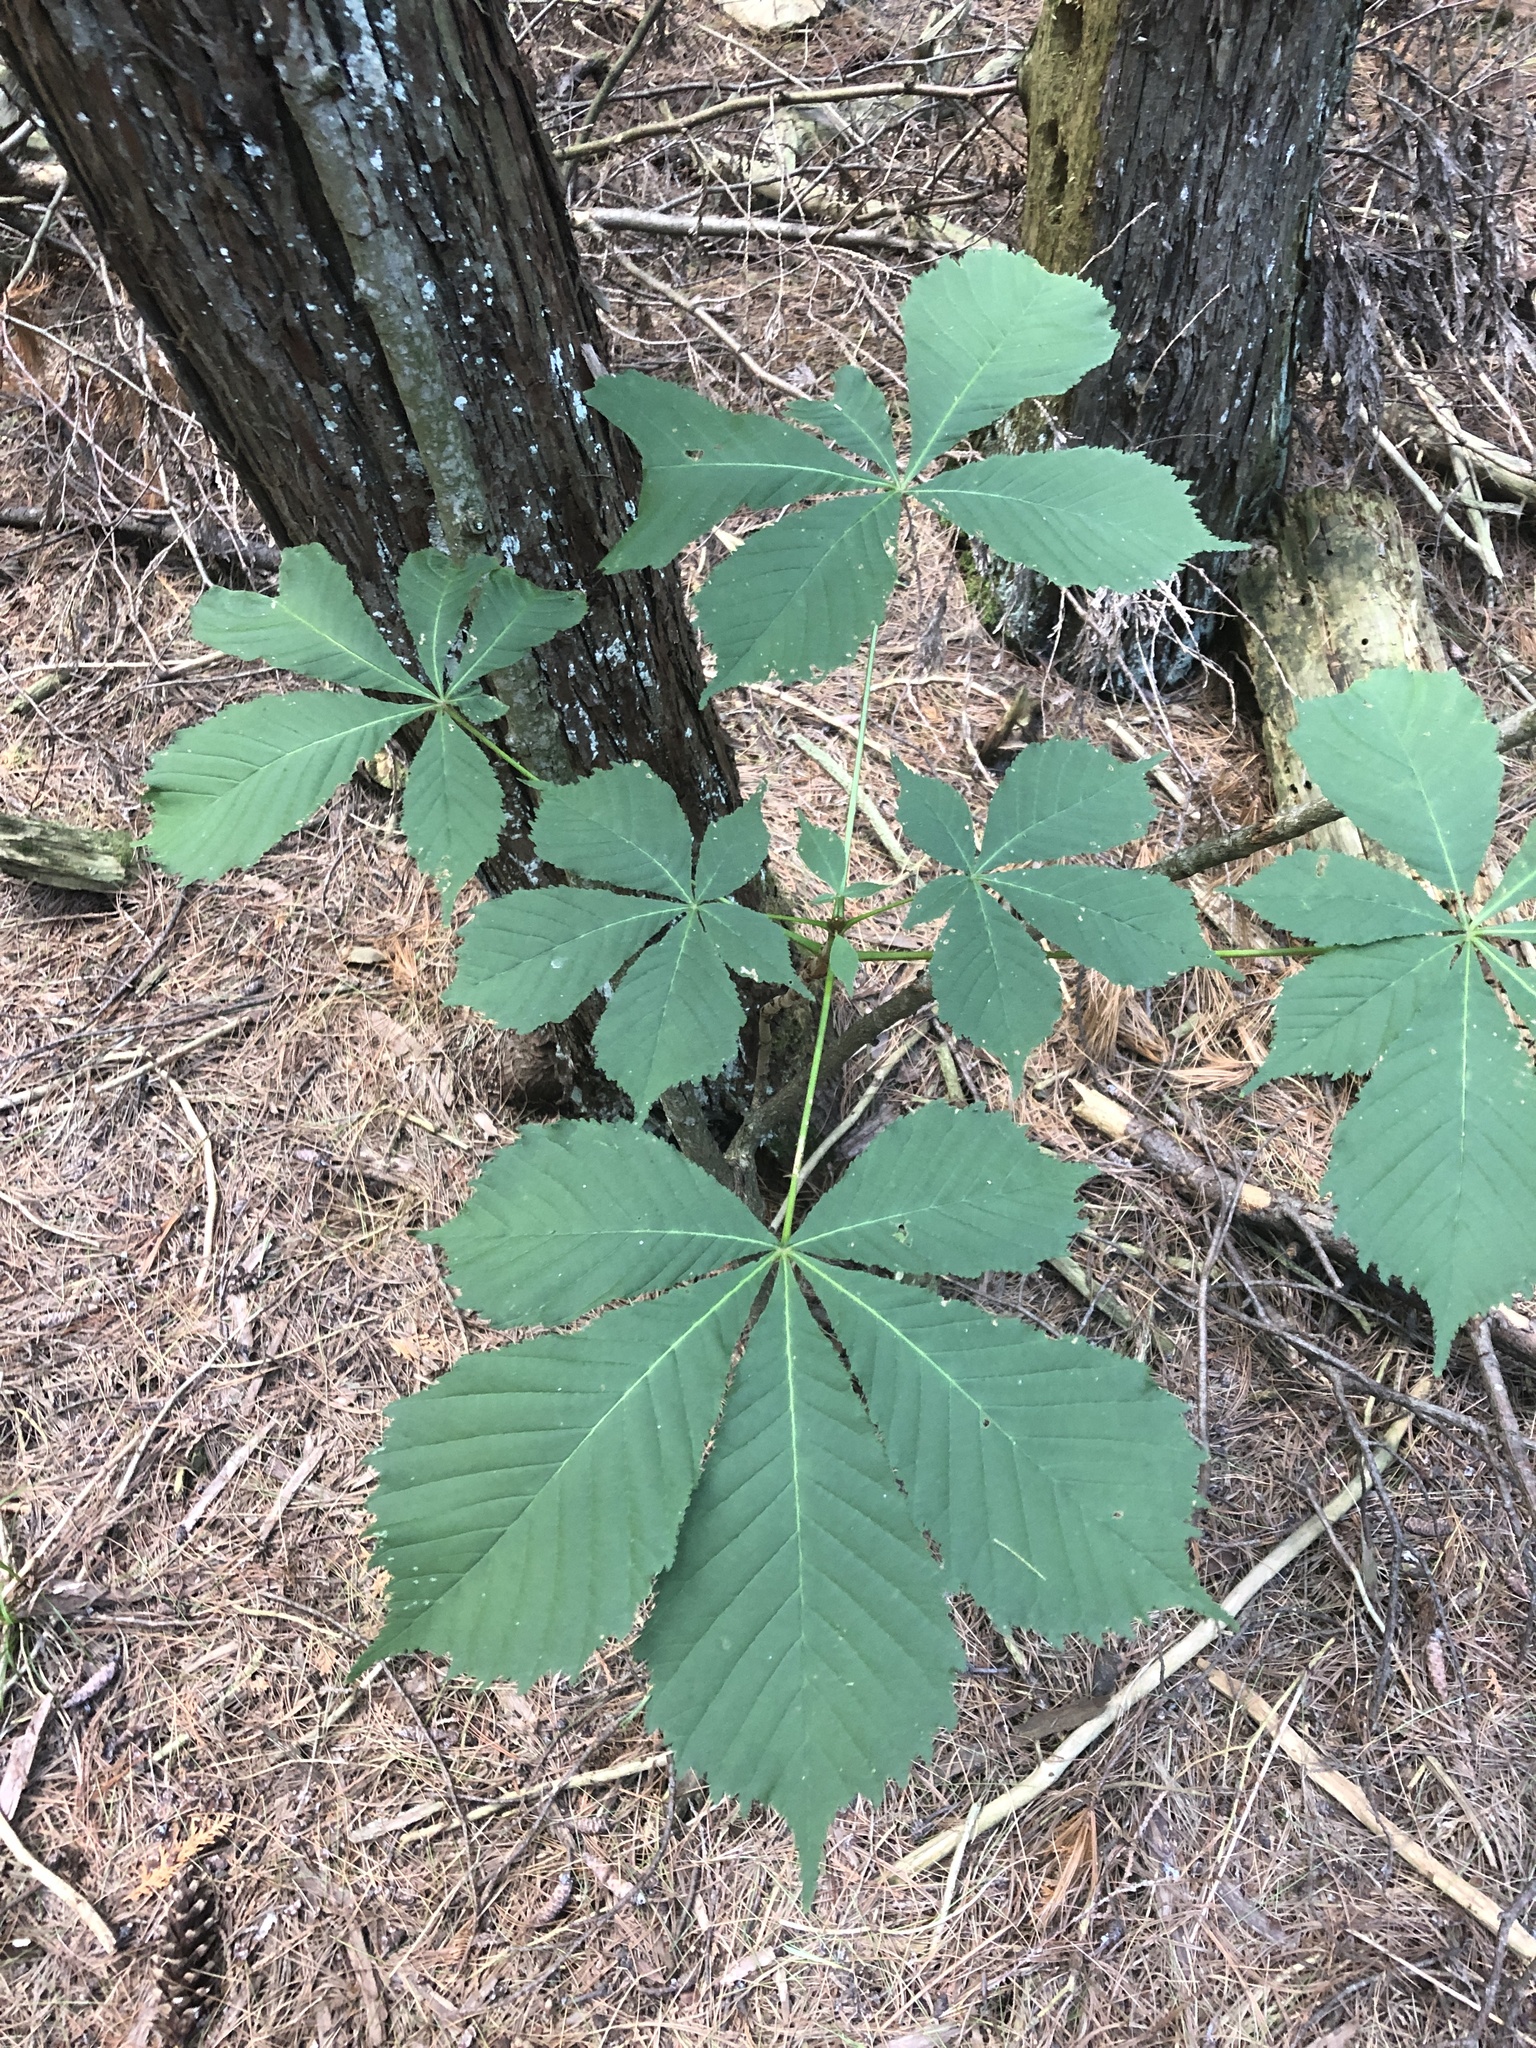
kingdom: Plantae
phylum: Tracheophyta
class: Magnoliopsida
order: Sapindales
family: Sapindaceae
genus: Aesculus
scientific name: Aesculus hippocastanum
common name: Horse-chestnut
